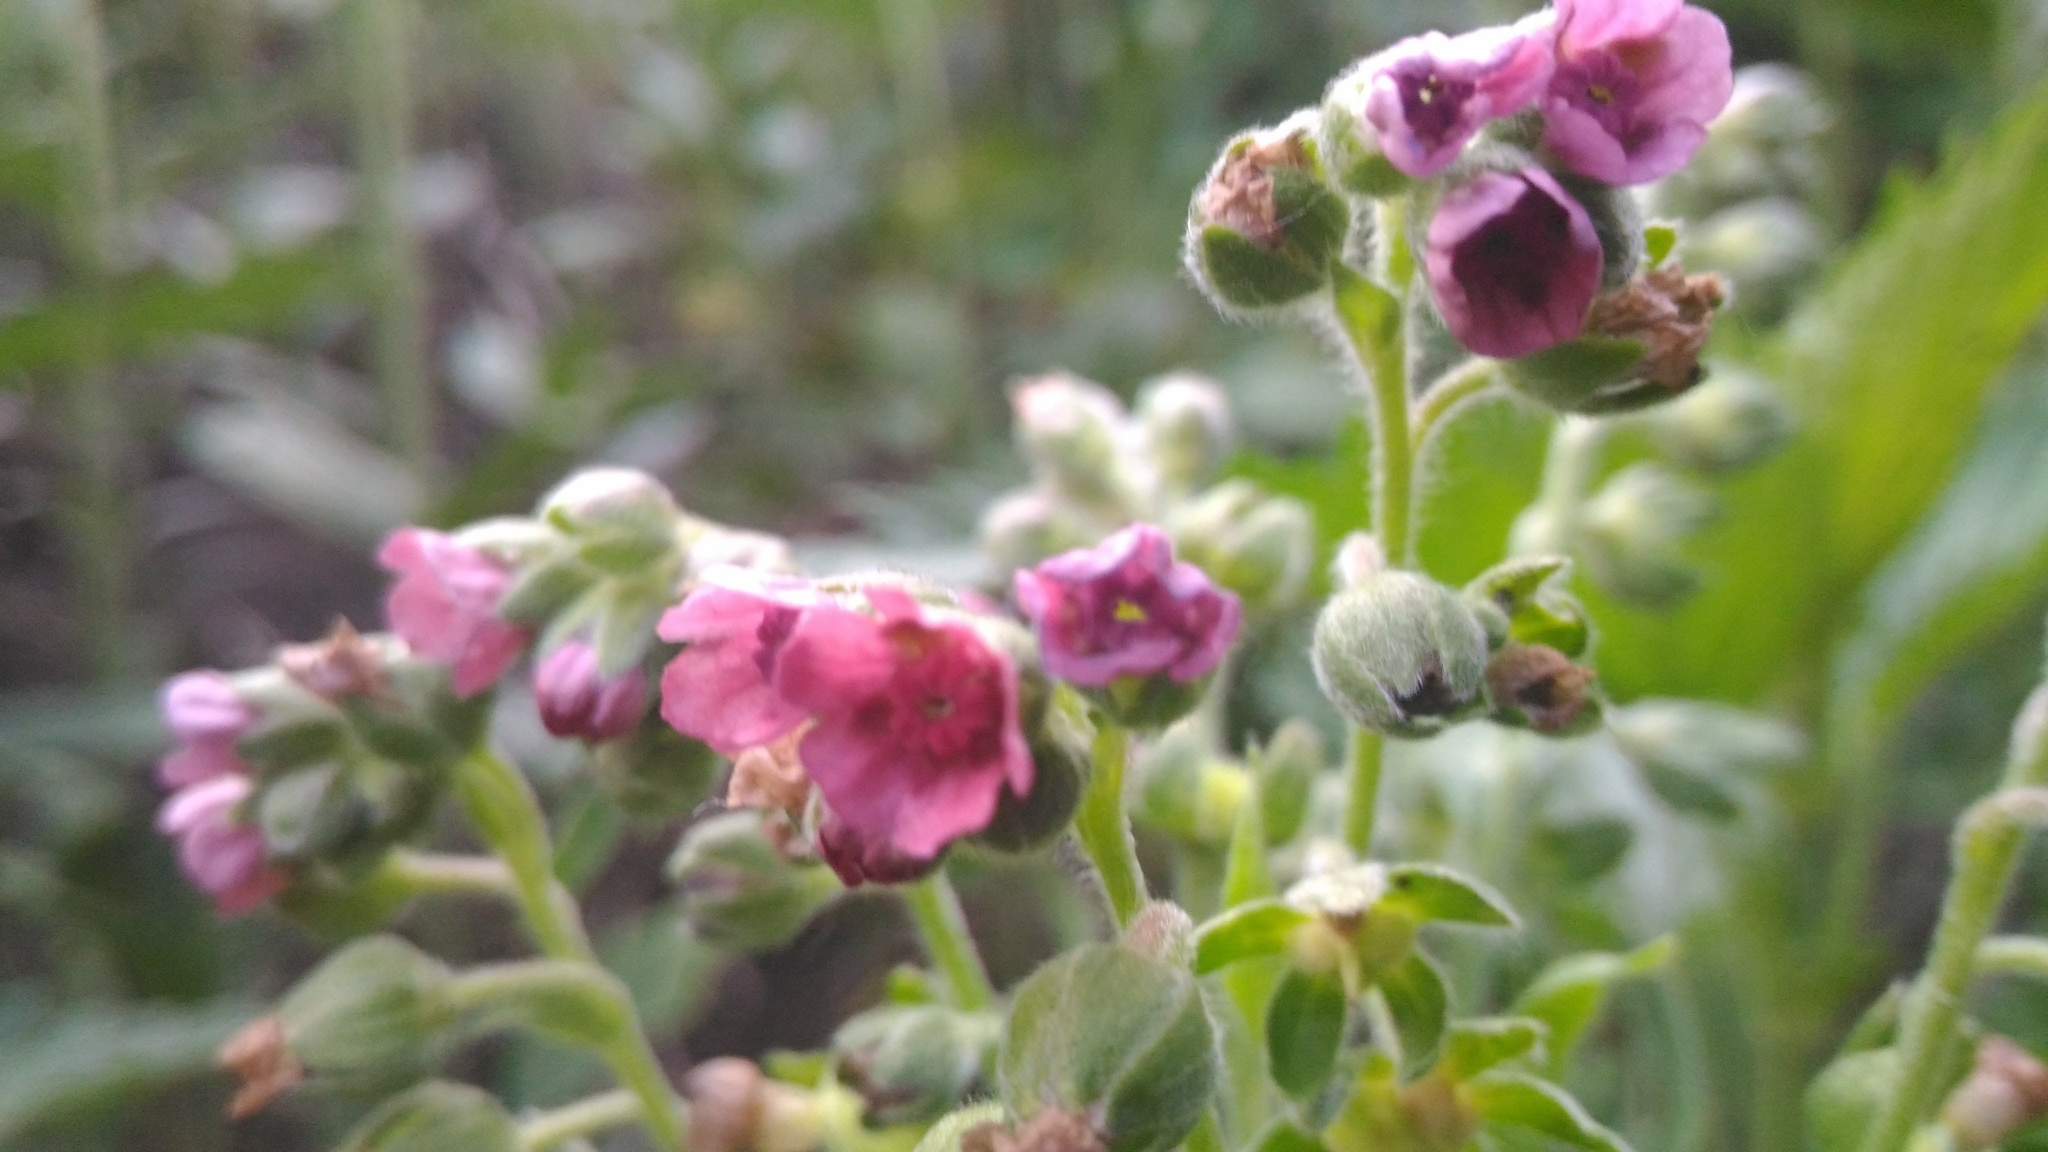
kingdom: Plantae
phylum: Tracheophyta
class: Magnoliopsida
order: Boraginales
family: Boraginaceae
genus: Cynoglossum
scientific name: Cynoglossum officinale
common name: Hound's-tongue
